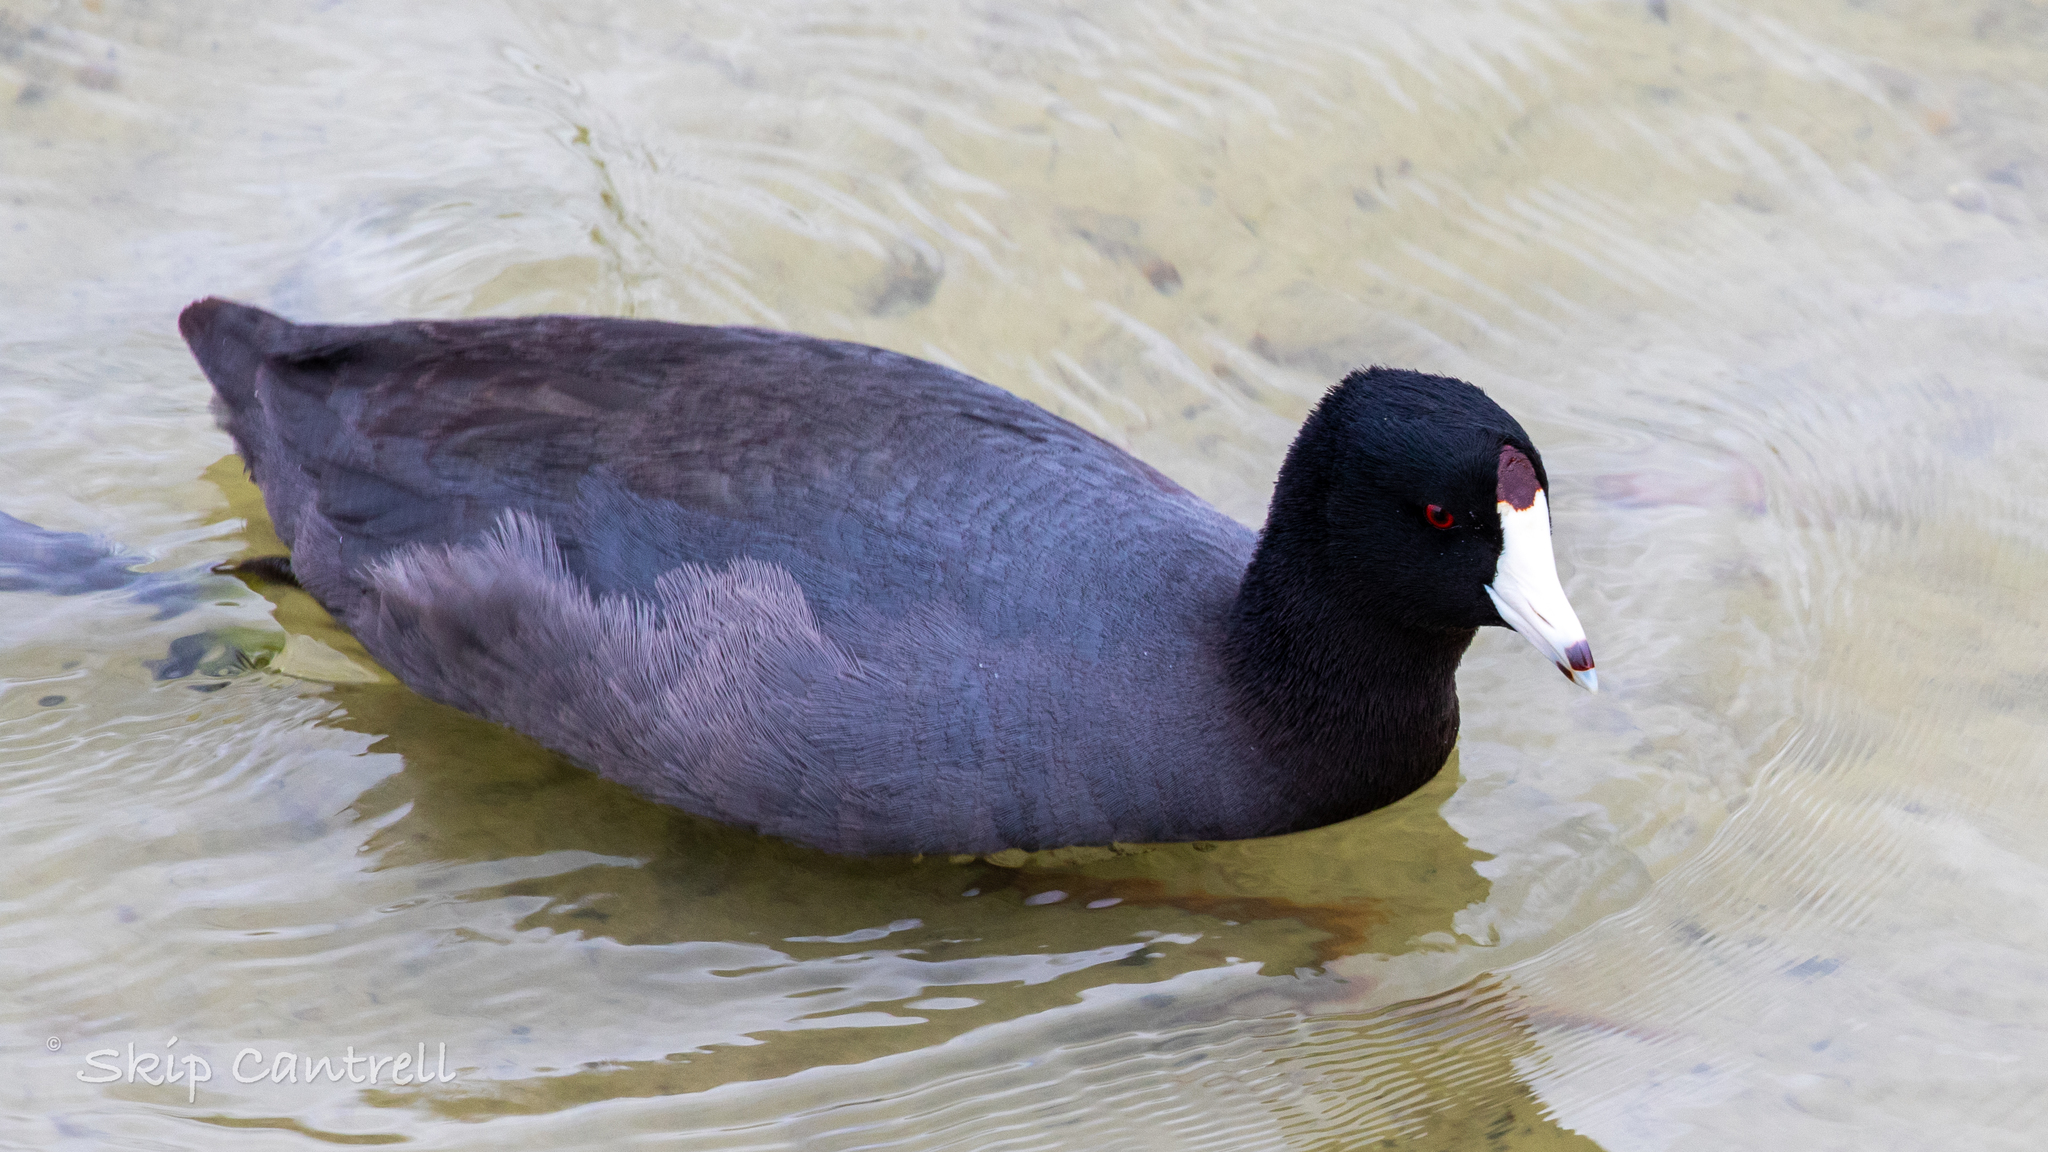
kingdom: Animalia
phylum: Chordata
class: Aves
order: Gruiformes
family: Rallidae
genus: Fulica
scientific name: Fulica americana
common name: American coot
